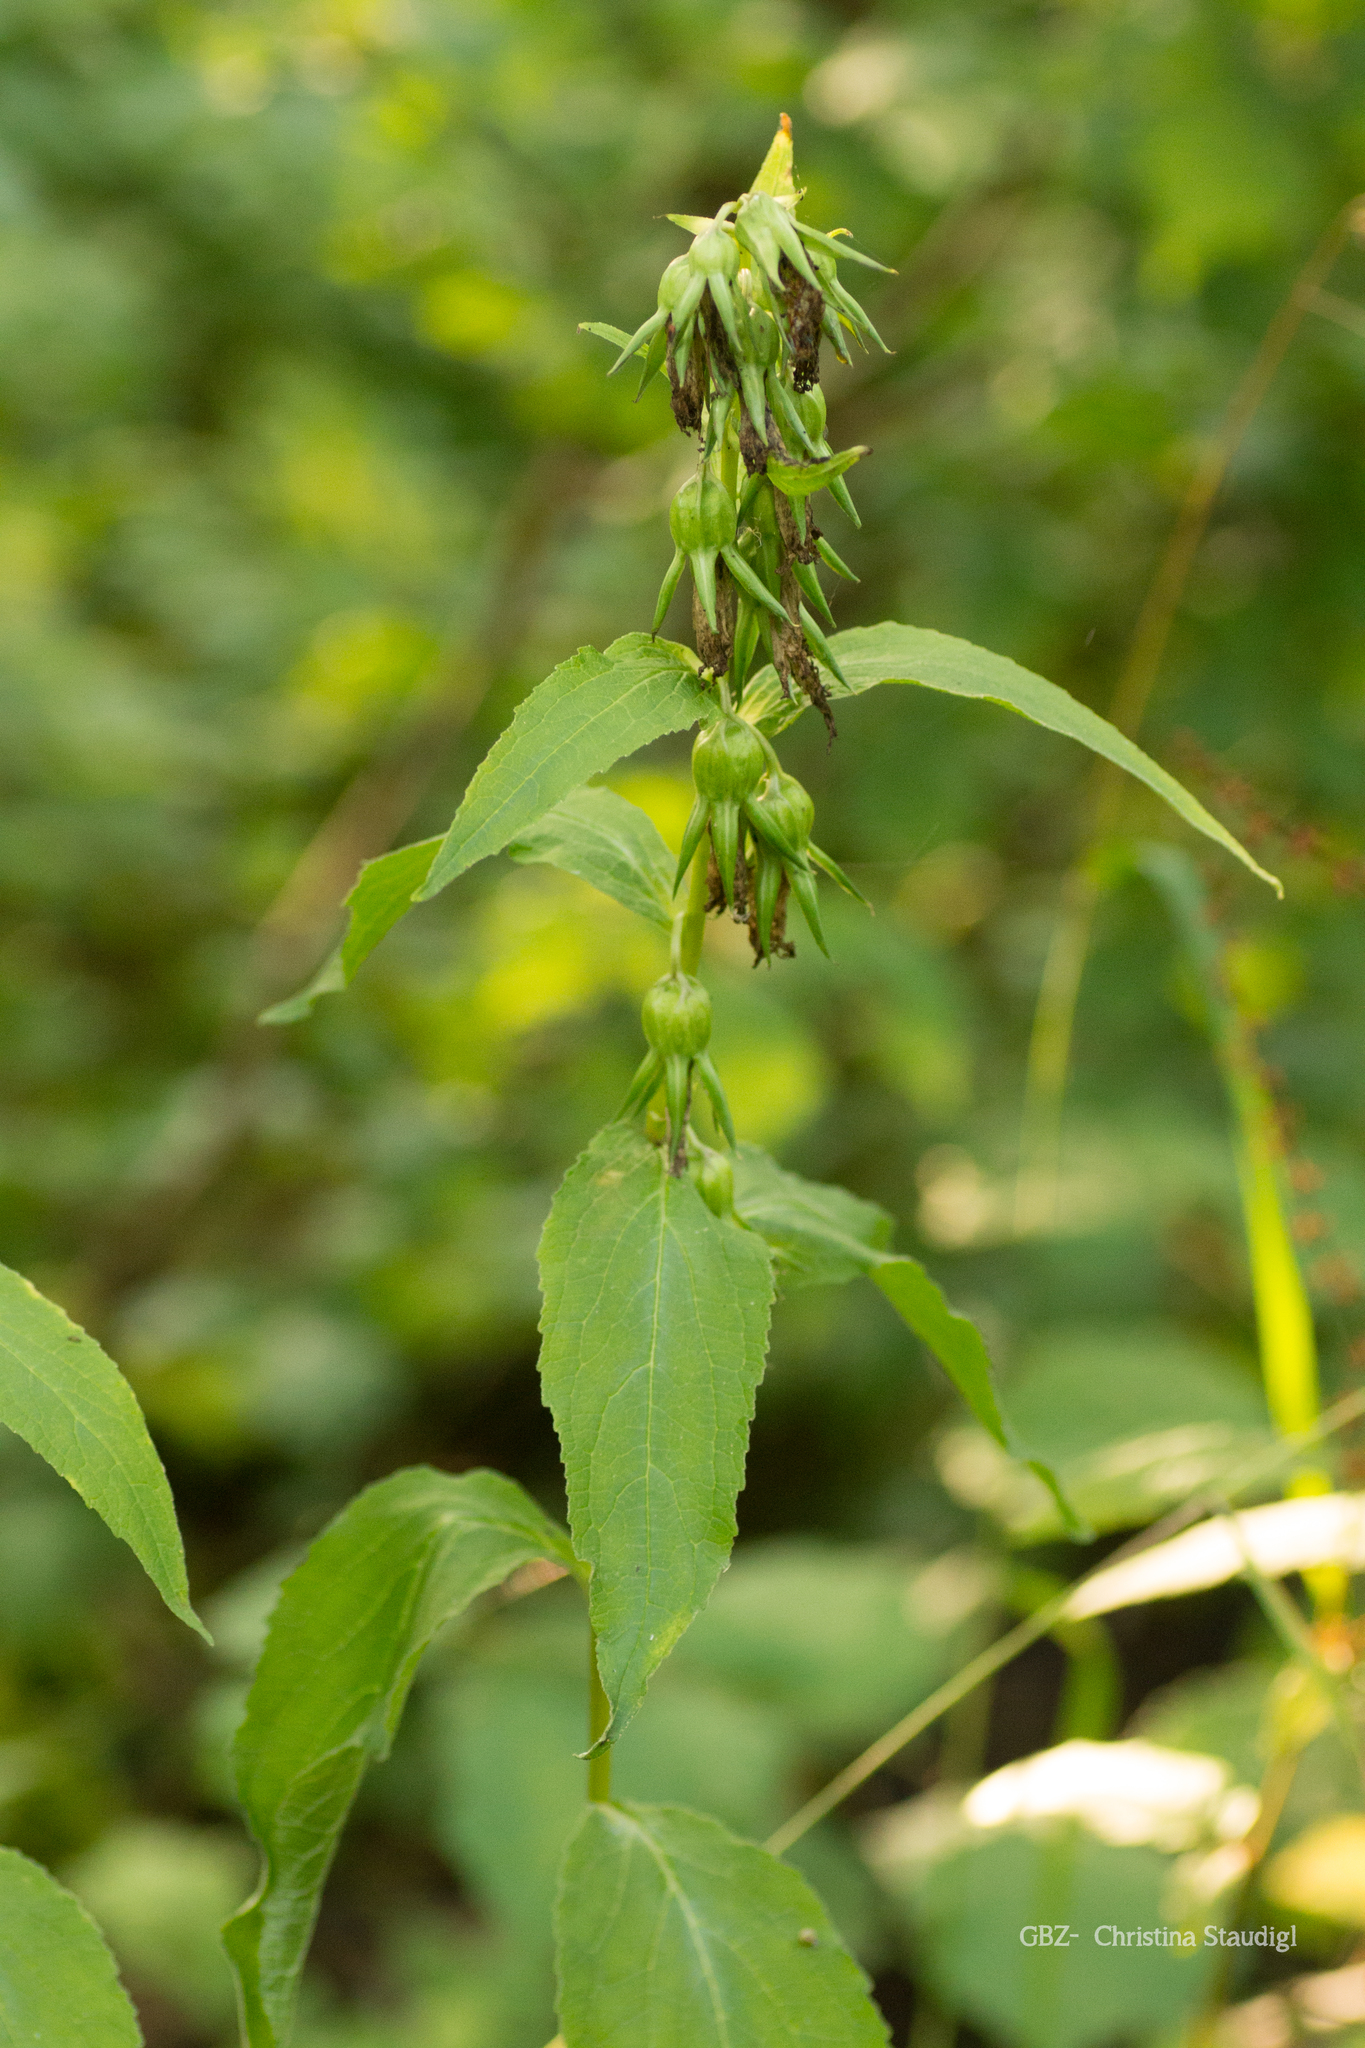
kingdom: Plantae
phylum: Tracheophyta
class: Magnoliopsida
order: Asterales
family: Campanulaceae
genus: Campanula
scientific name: Campanula trachelium
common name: Nettle-leaved bellflower
